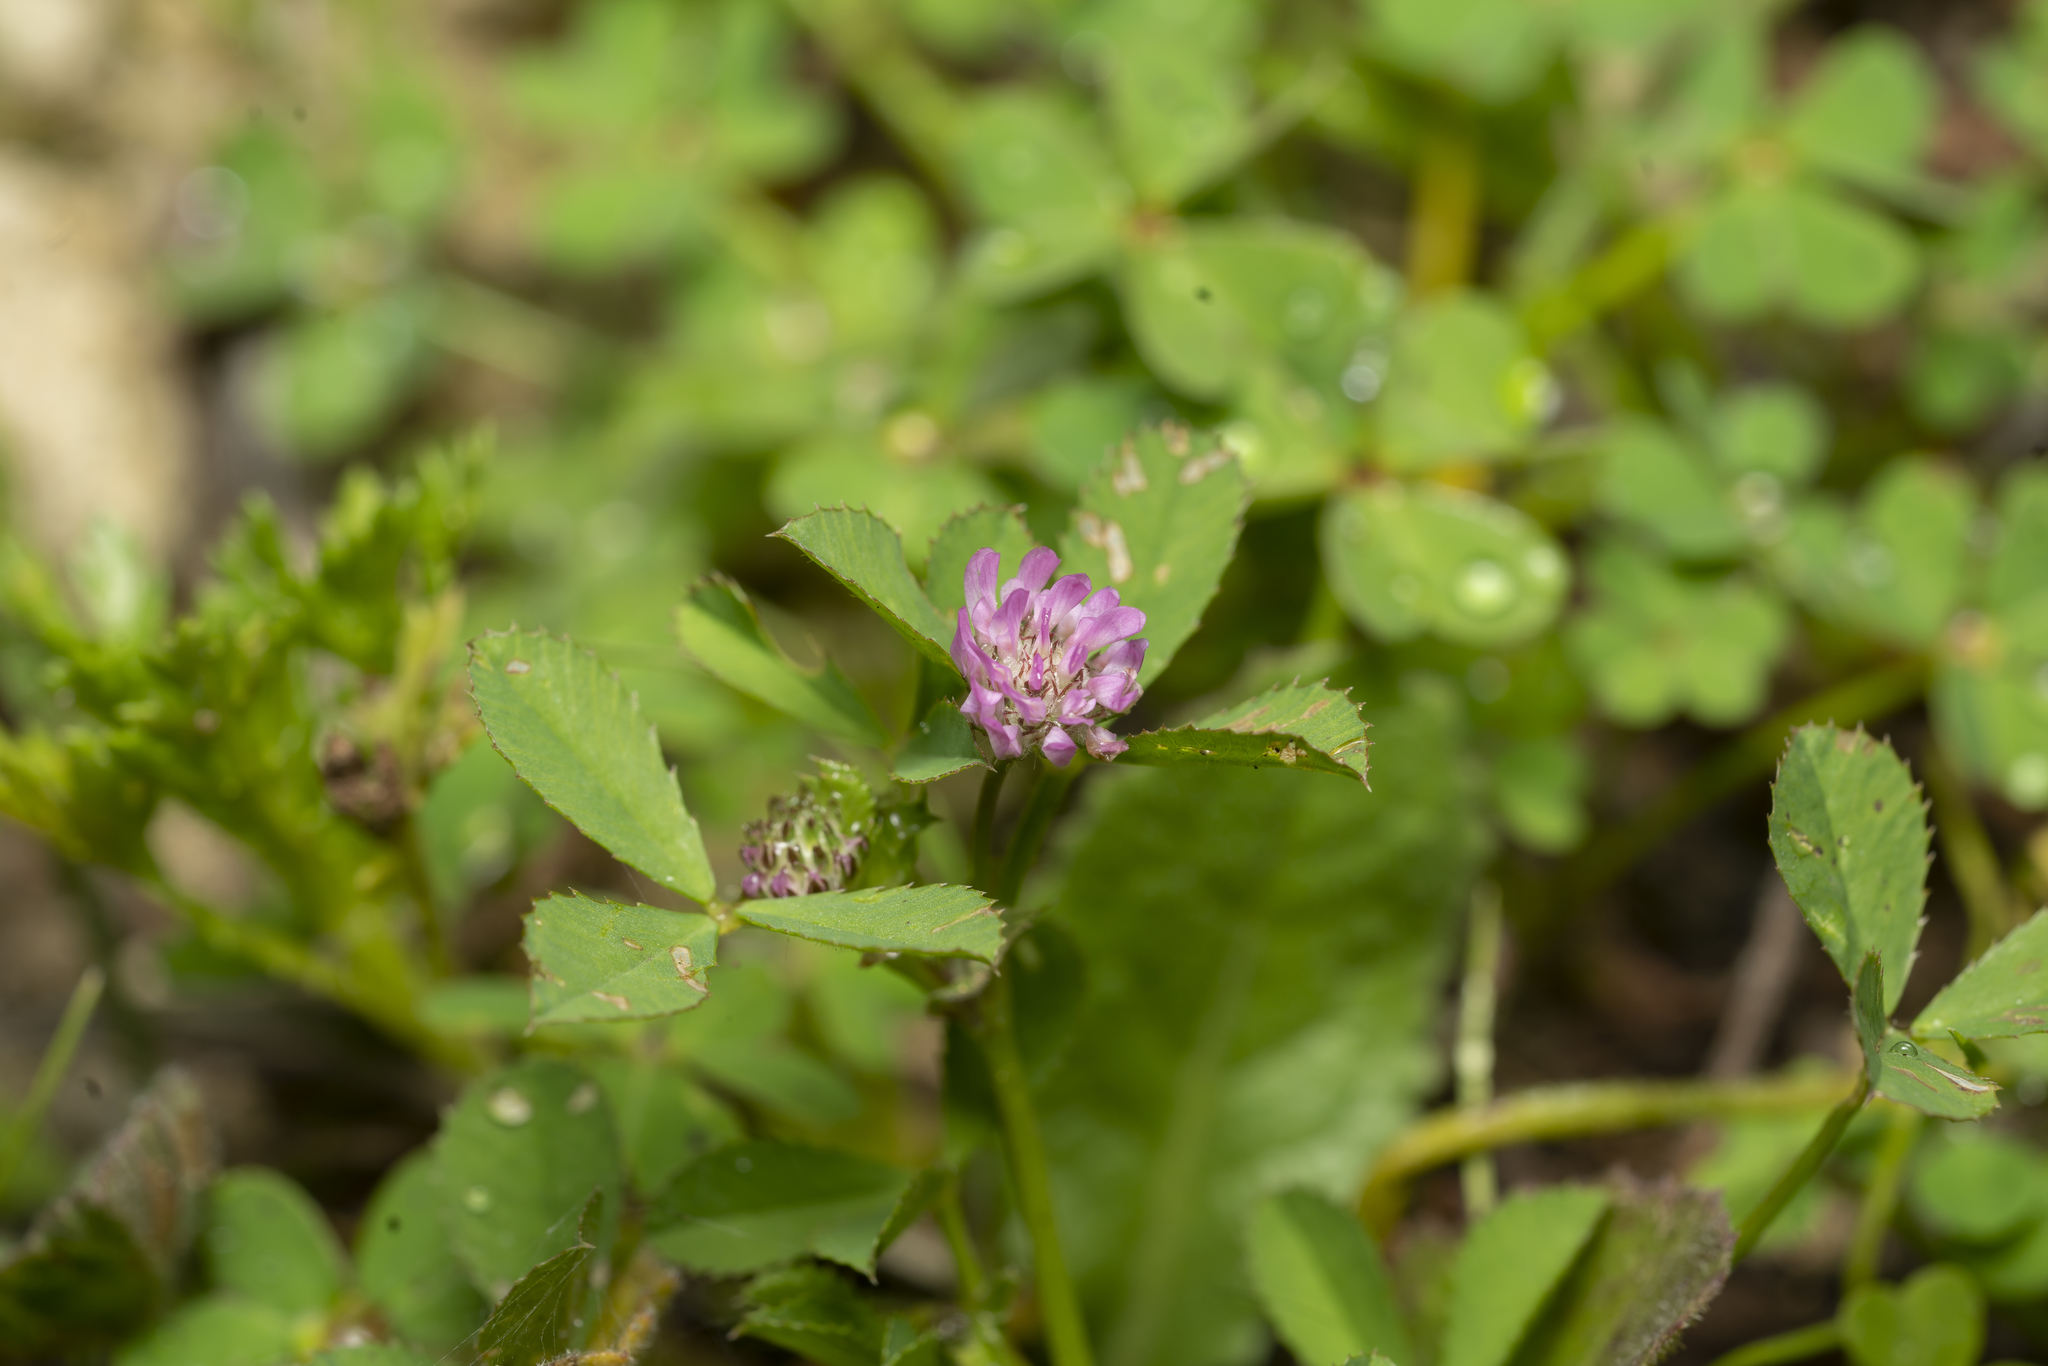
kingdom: Plantae
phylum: Tracheophyta
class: Magnoliopsida
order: Fabales
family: Fabaceae
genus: Trifolium
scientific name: Trifolium tomentosum
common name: Woolly clover
